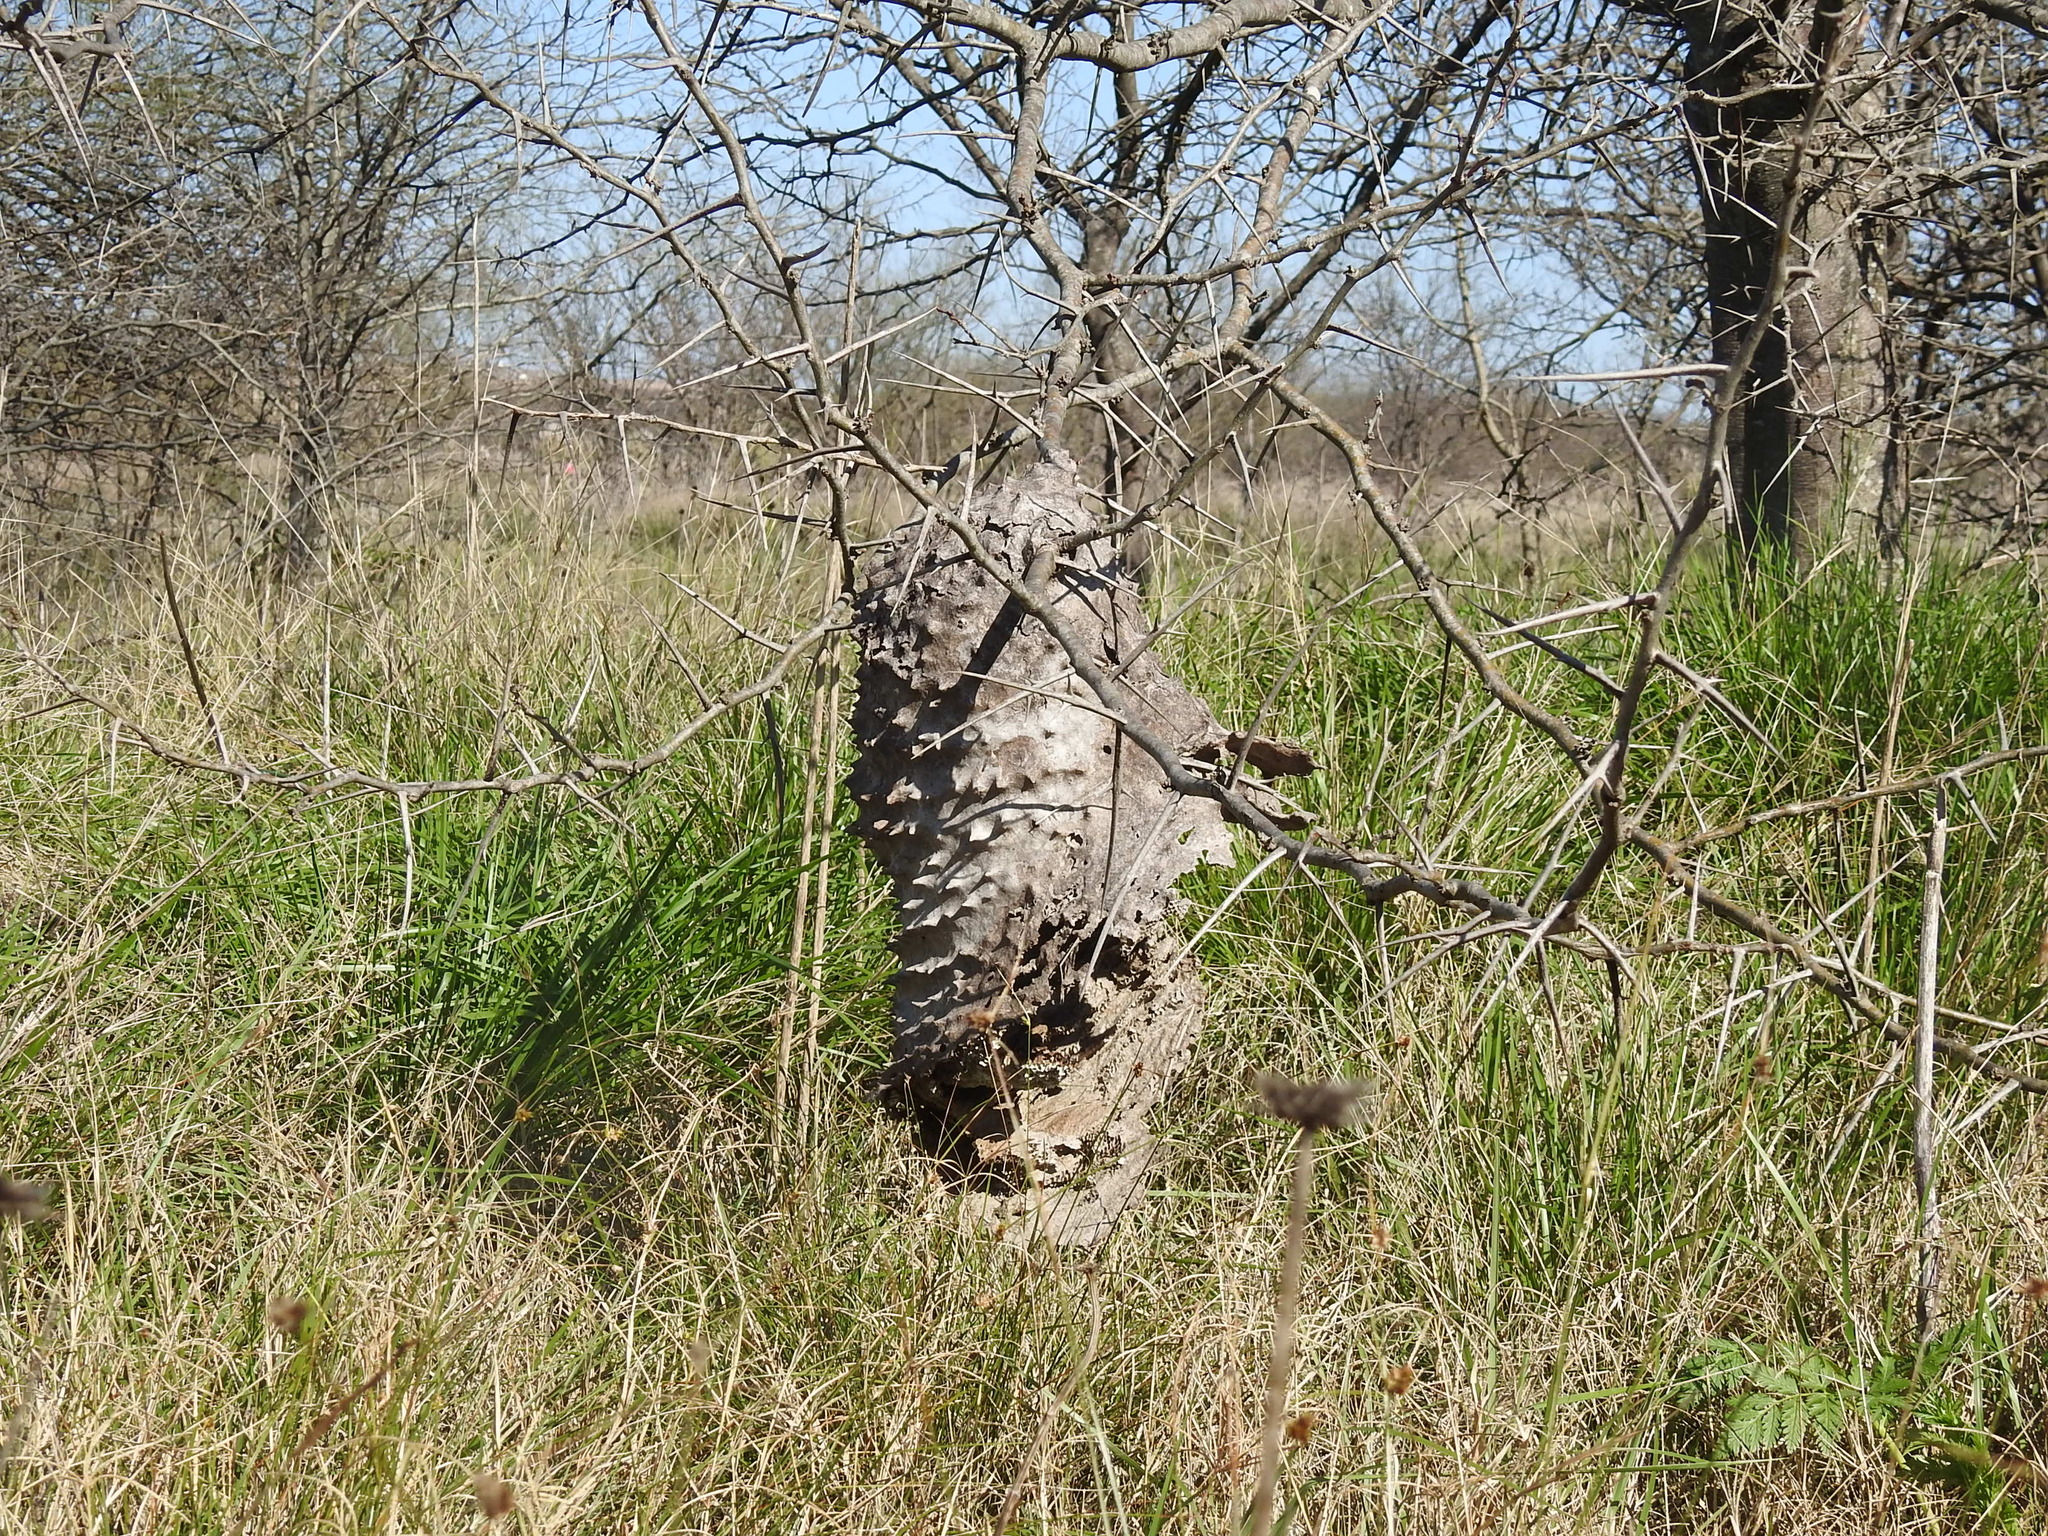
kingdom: Animalia
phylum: Arthropoda
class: Insecta
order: Hymenoptera
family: Eumenidae
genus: Polybia
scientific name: Polybia scutellaris
